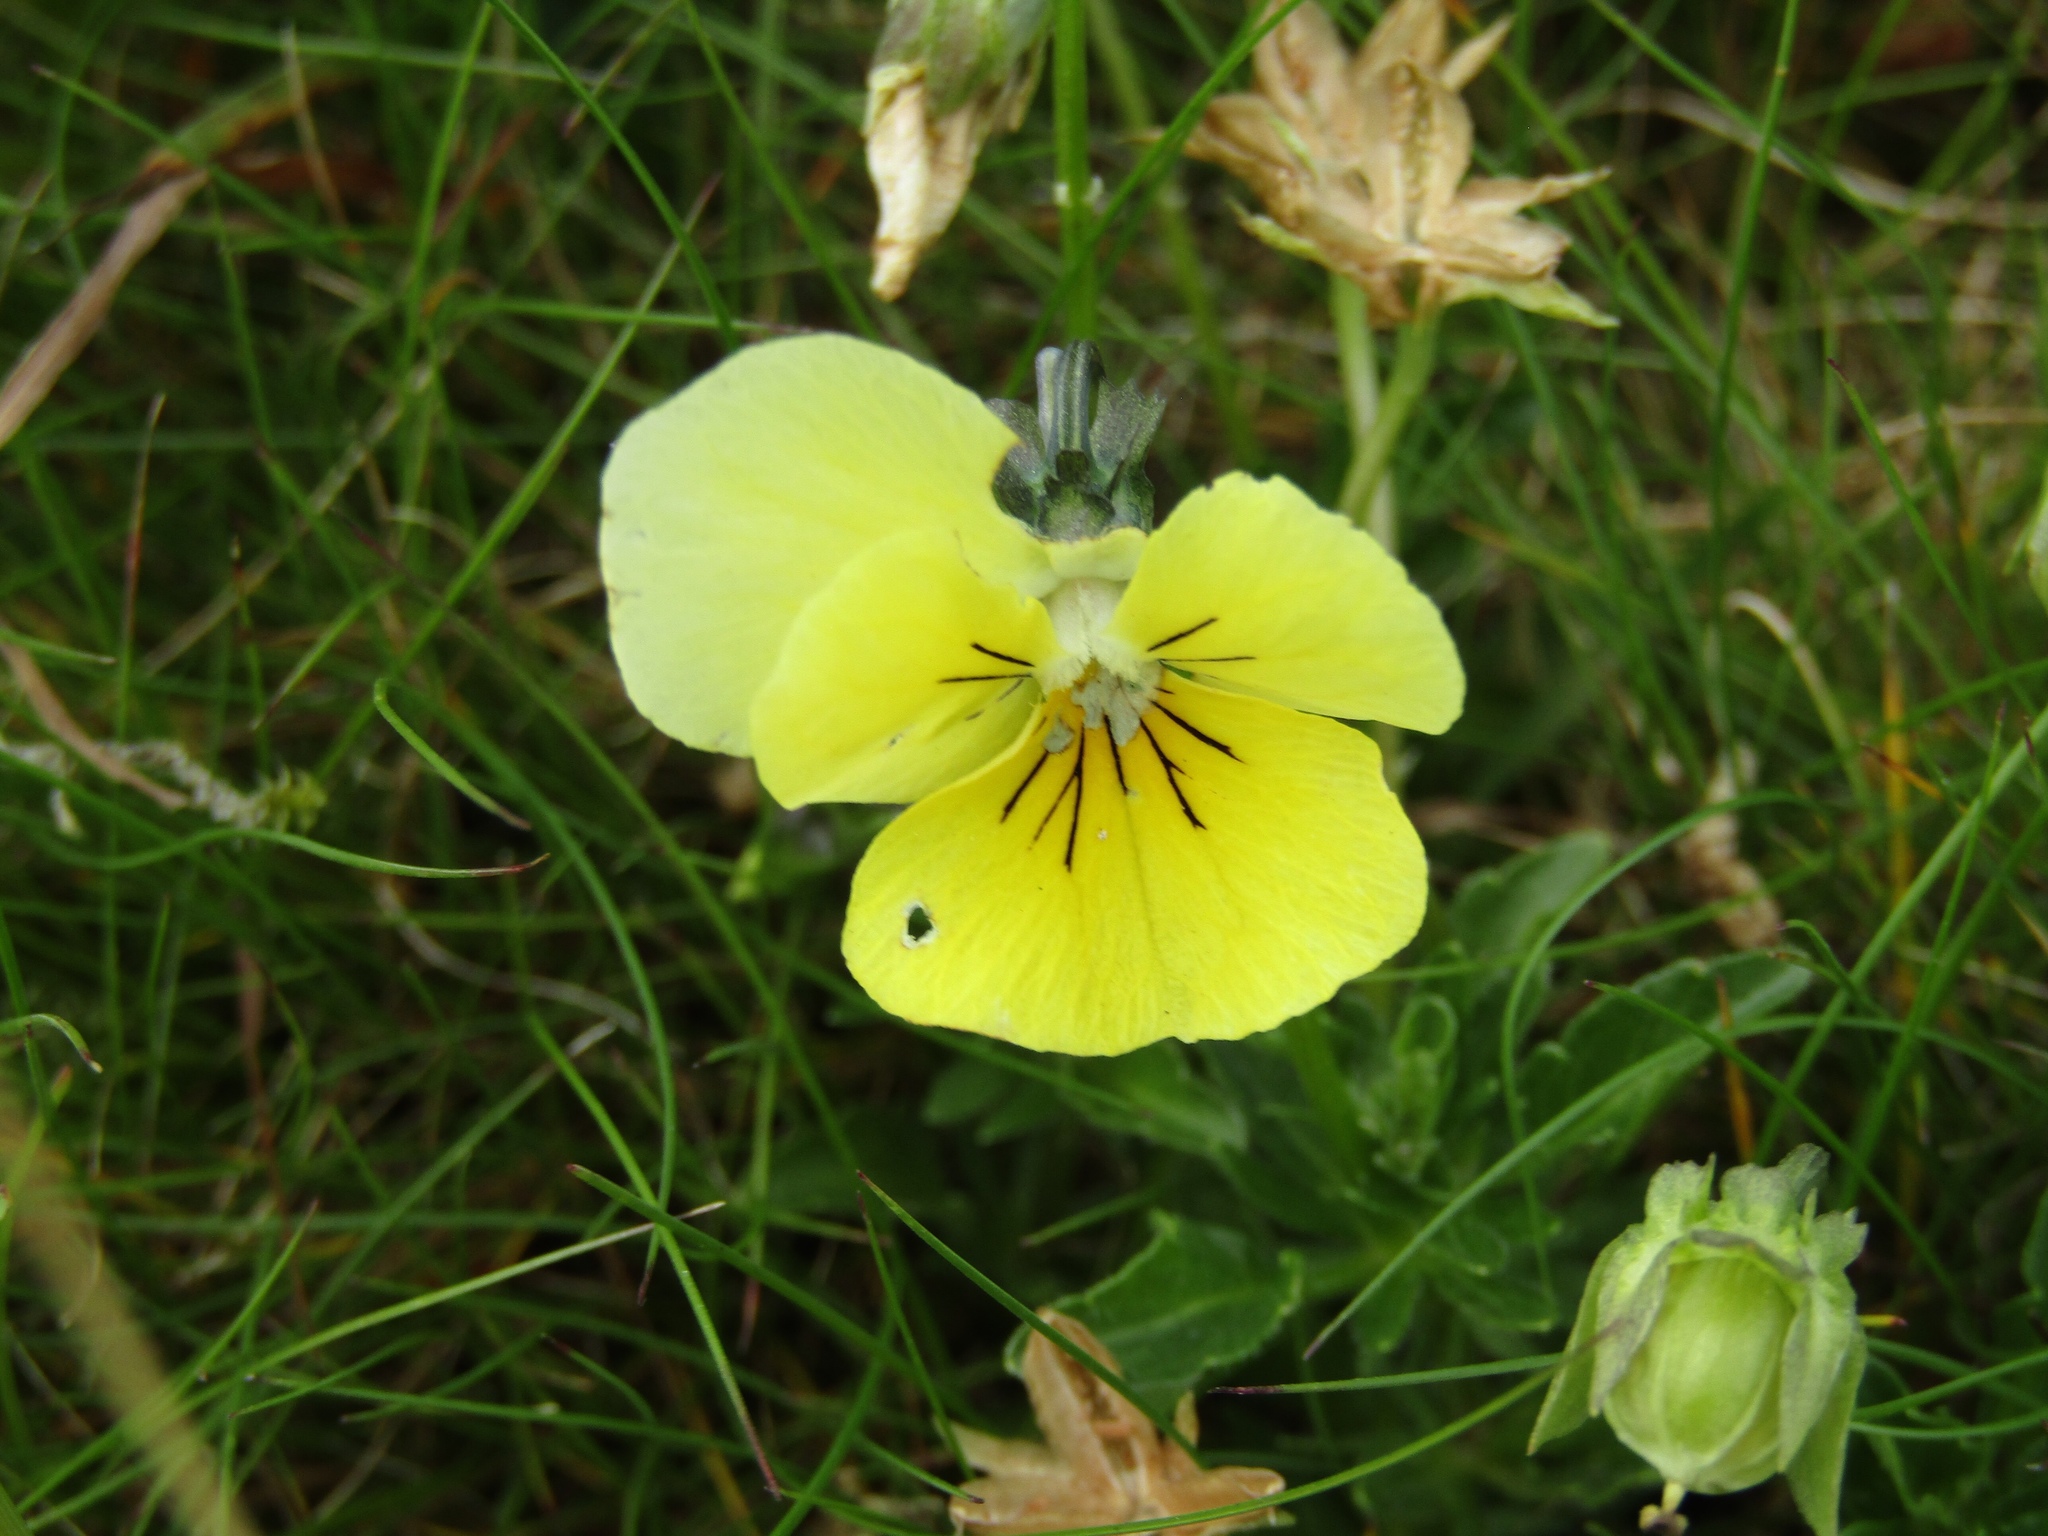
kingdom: Plantae
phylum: Tracheophyta
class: Magnoliopsida
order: Malpighiales
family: Violaceae
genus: Viola
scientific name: Viola lutea
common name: Mountain pansy
